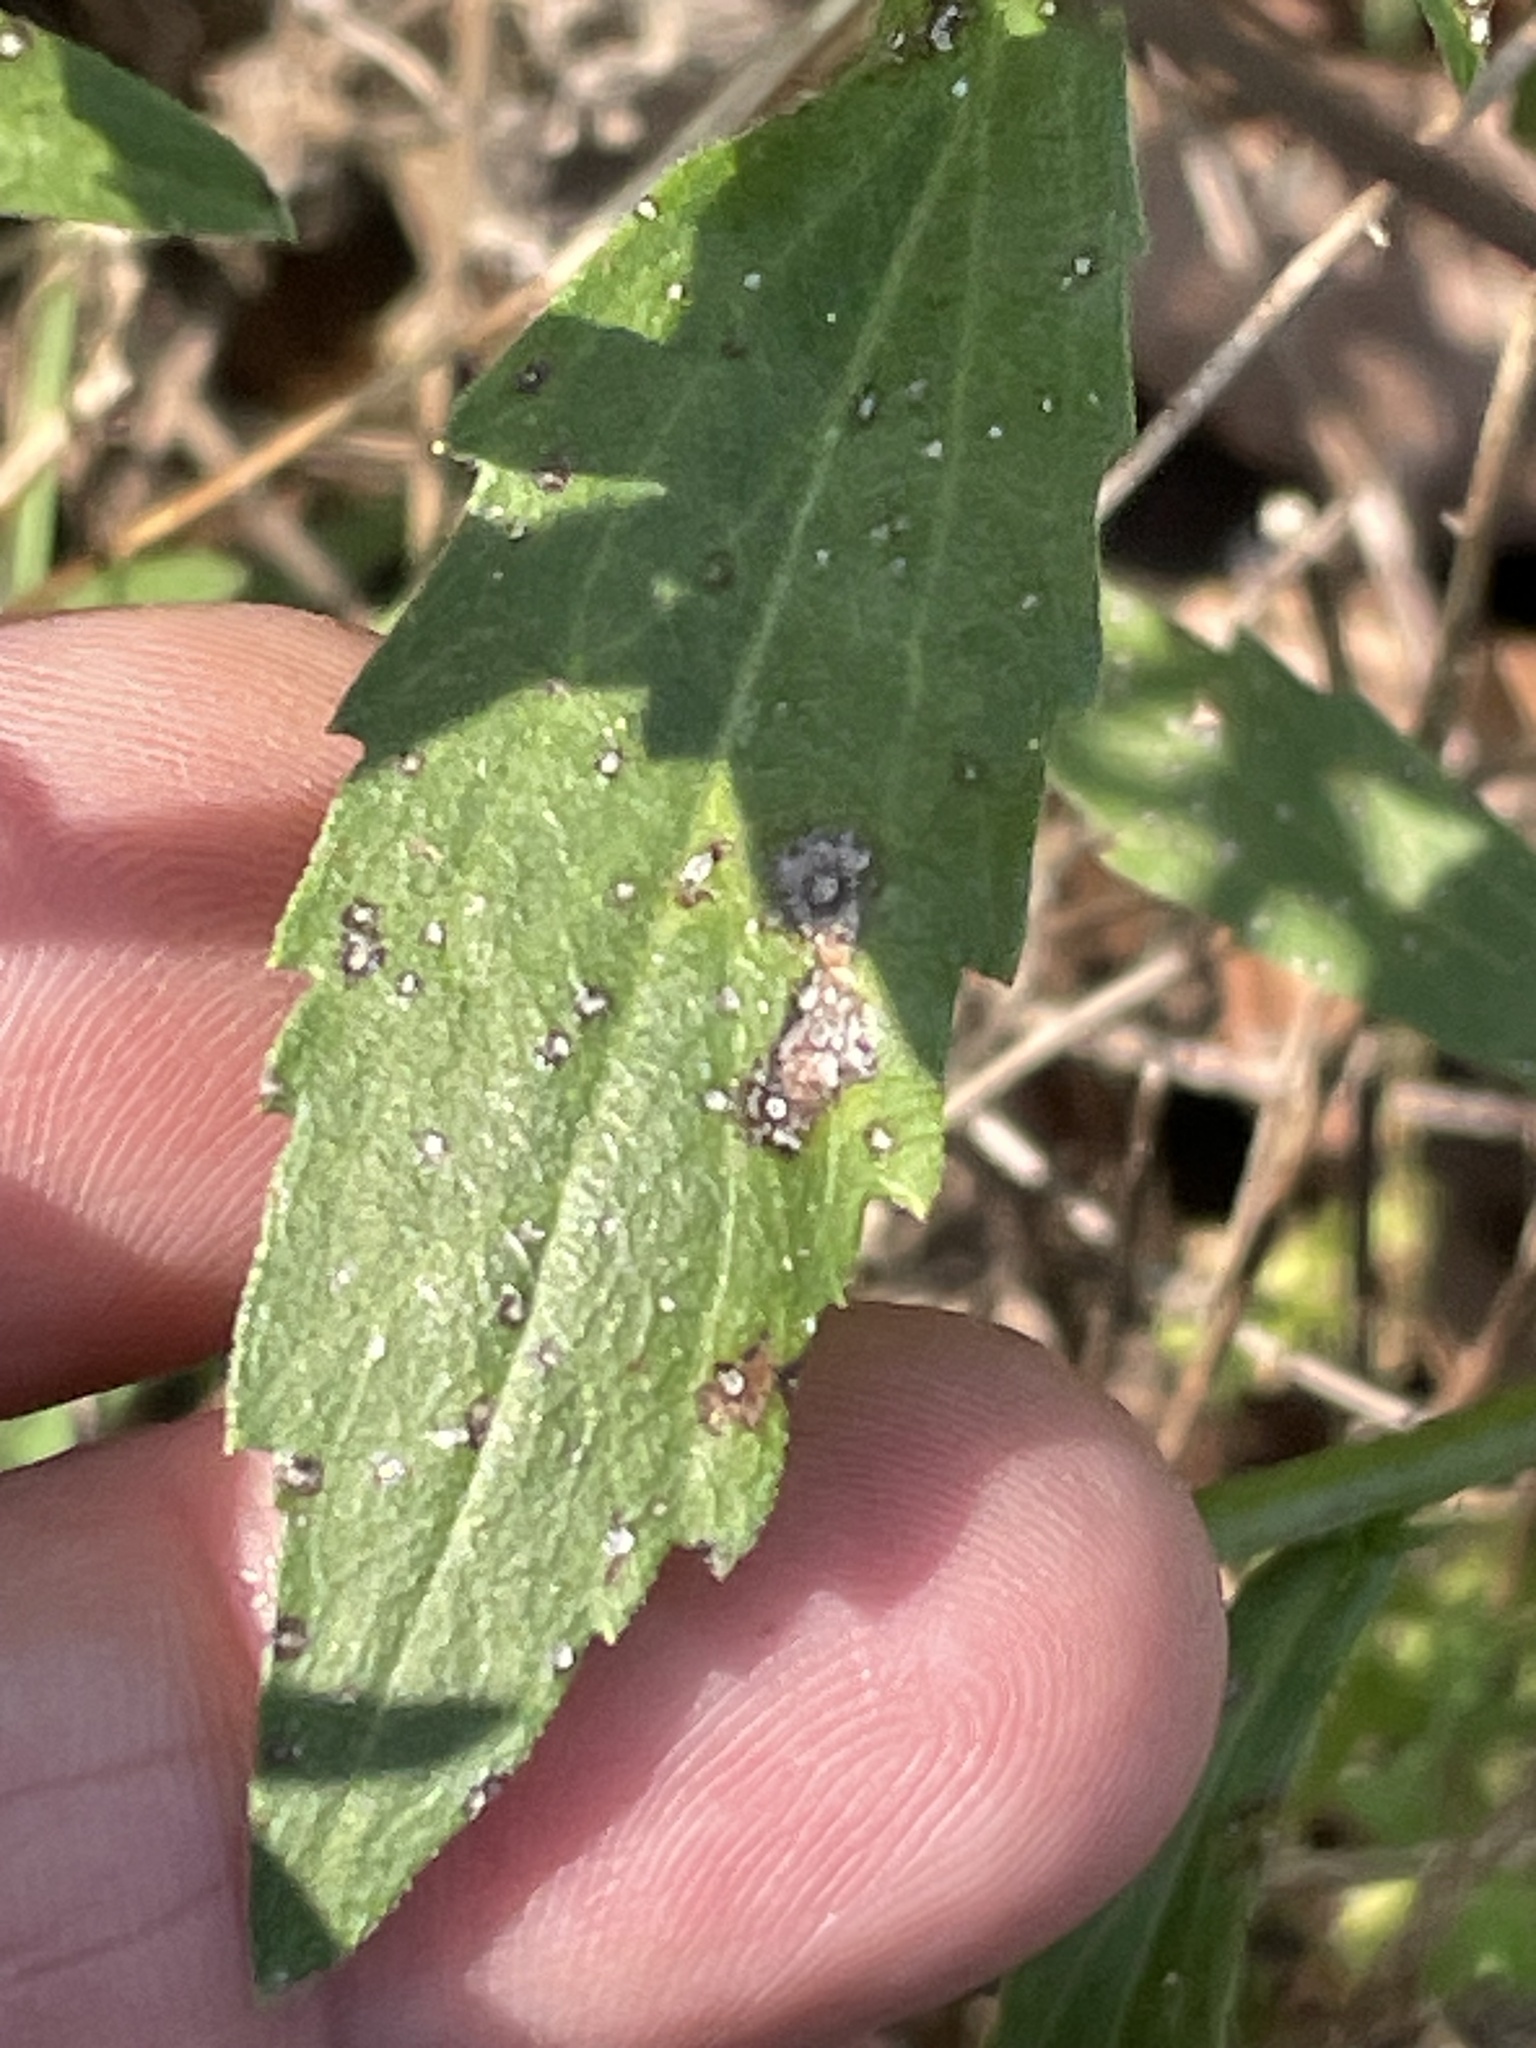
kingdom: Plantae
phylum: Tracheophyta
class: Magnoliopsida
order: Asterales
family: Asteraceae
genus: Erigeron
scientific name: Erigeron annuus
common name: Tall fleabane
